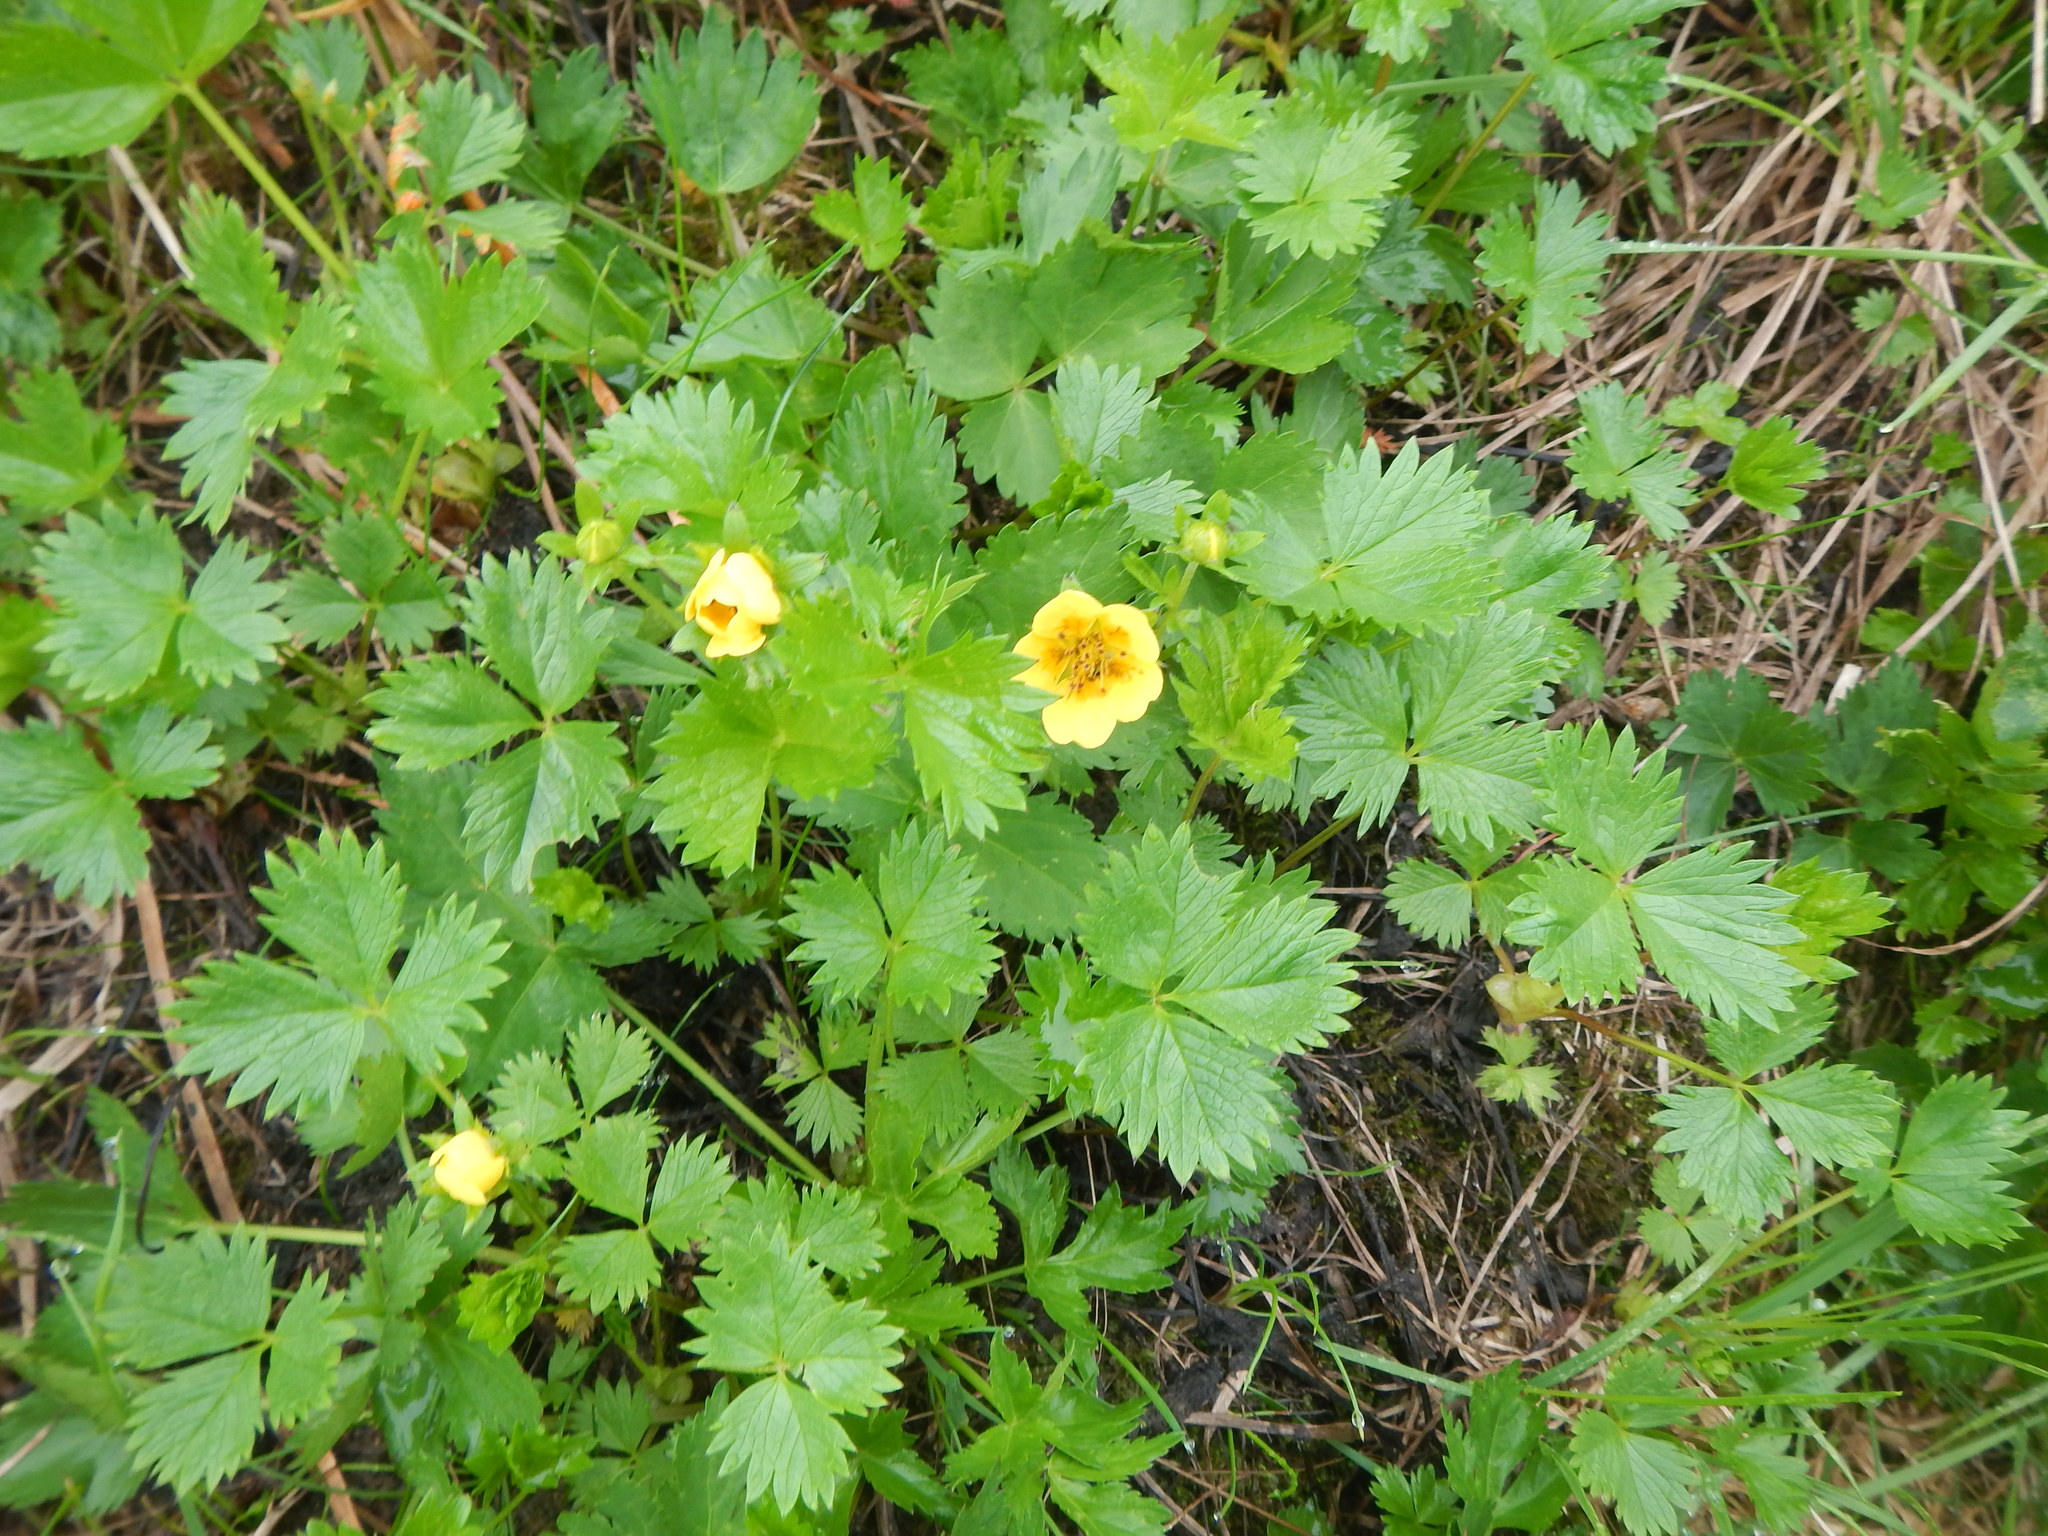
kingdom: Plantae
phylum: Tracheophyta
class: Magnoliopsida
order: Rosales
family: Rosaceae
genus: Potentilla
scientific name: Potentilla matsumurae
